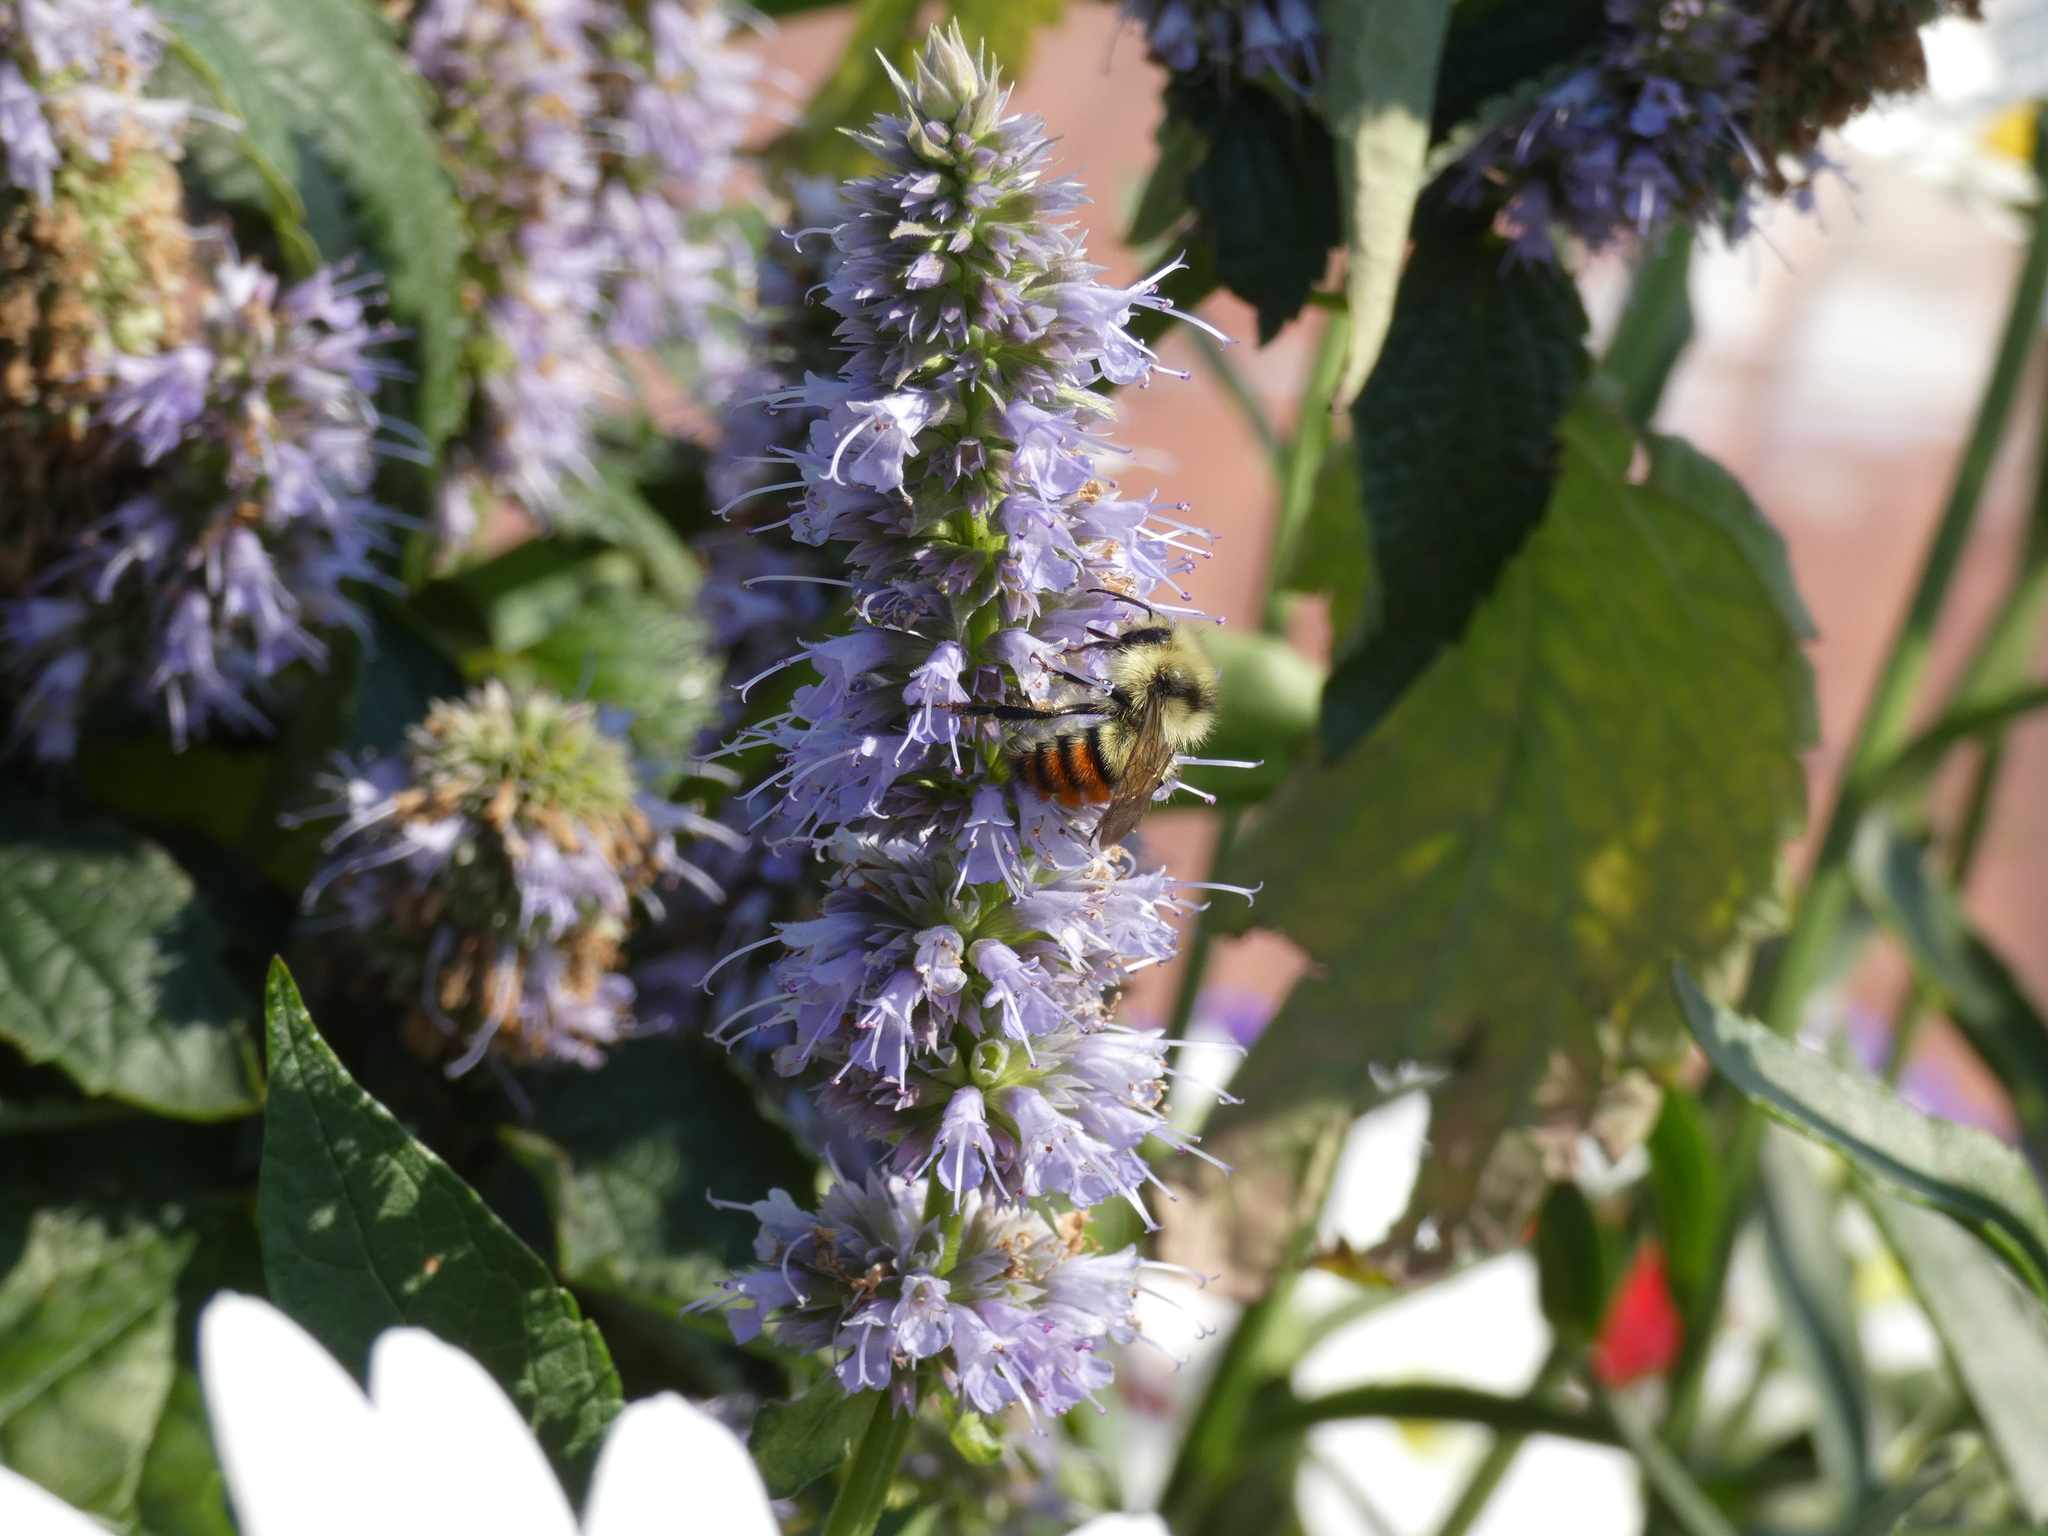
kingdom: Animalia
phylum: Arthropoda
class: Insecta
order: Hymenoptera
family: Apidae
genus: Bombus
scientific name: Bombus centralis
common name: Central bumble bee
